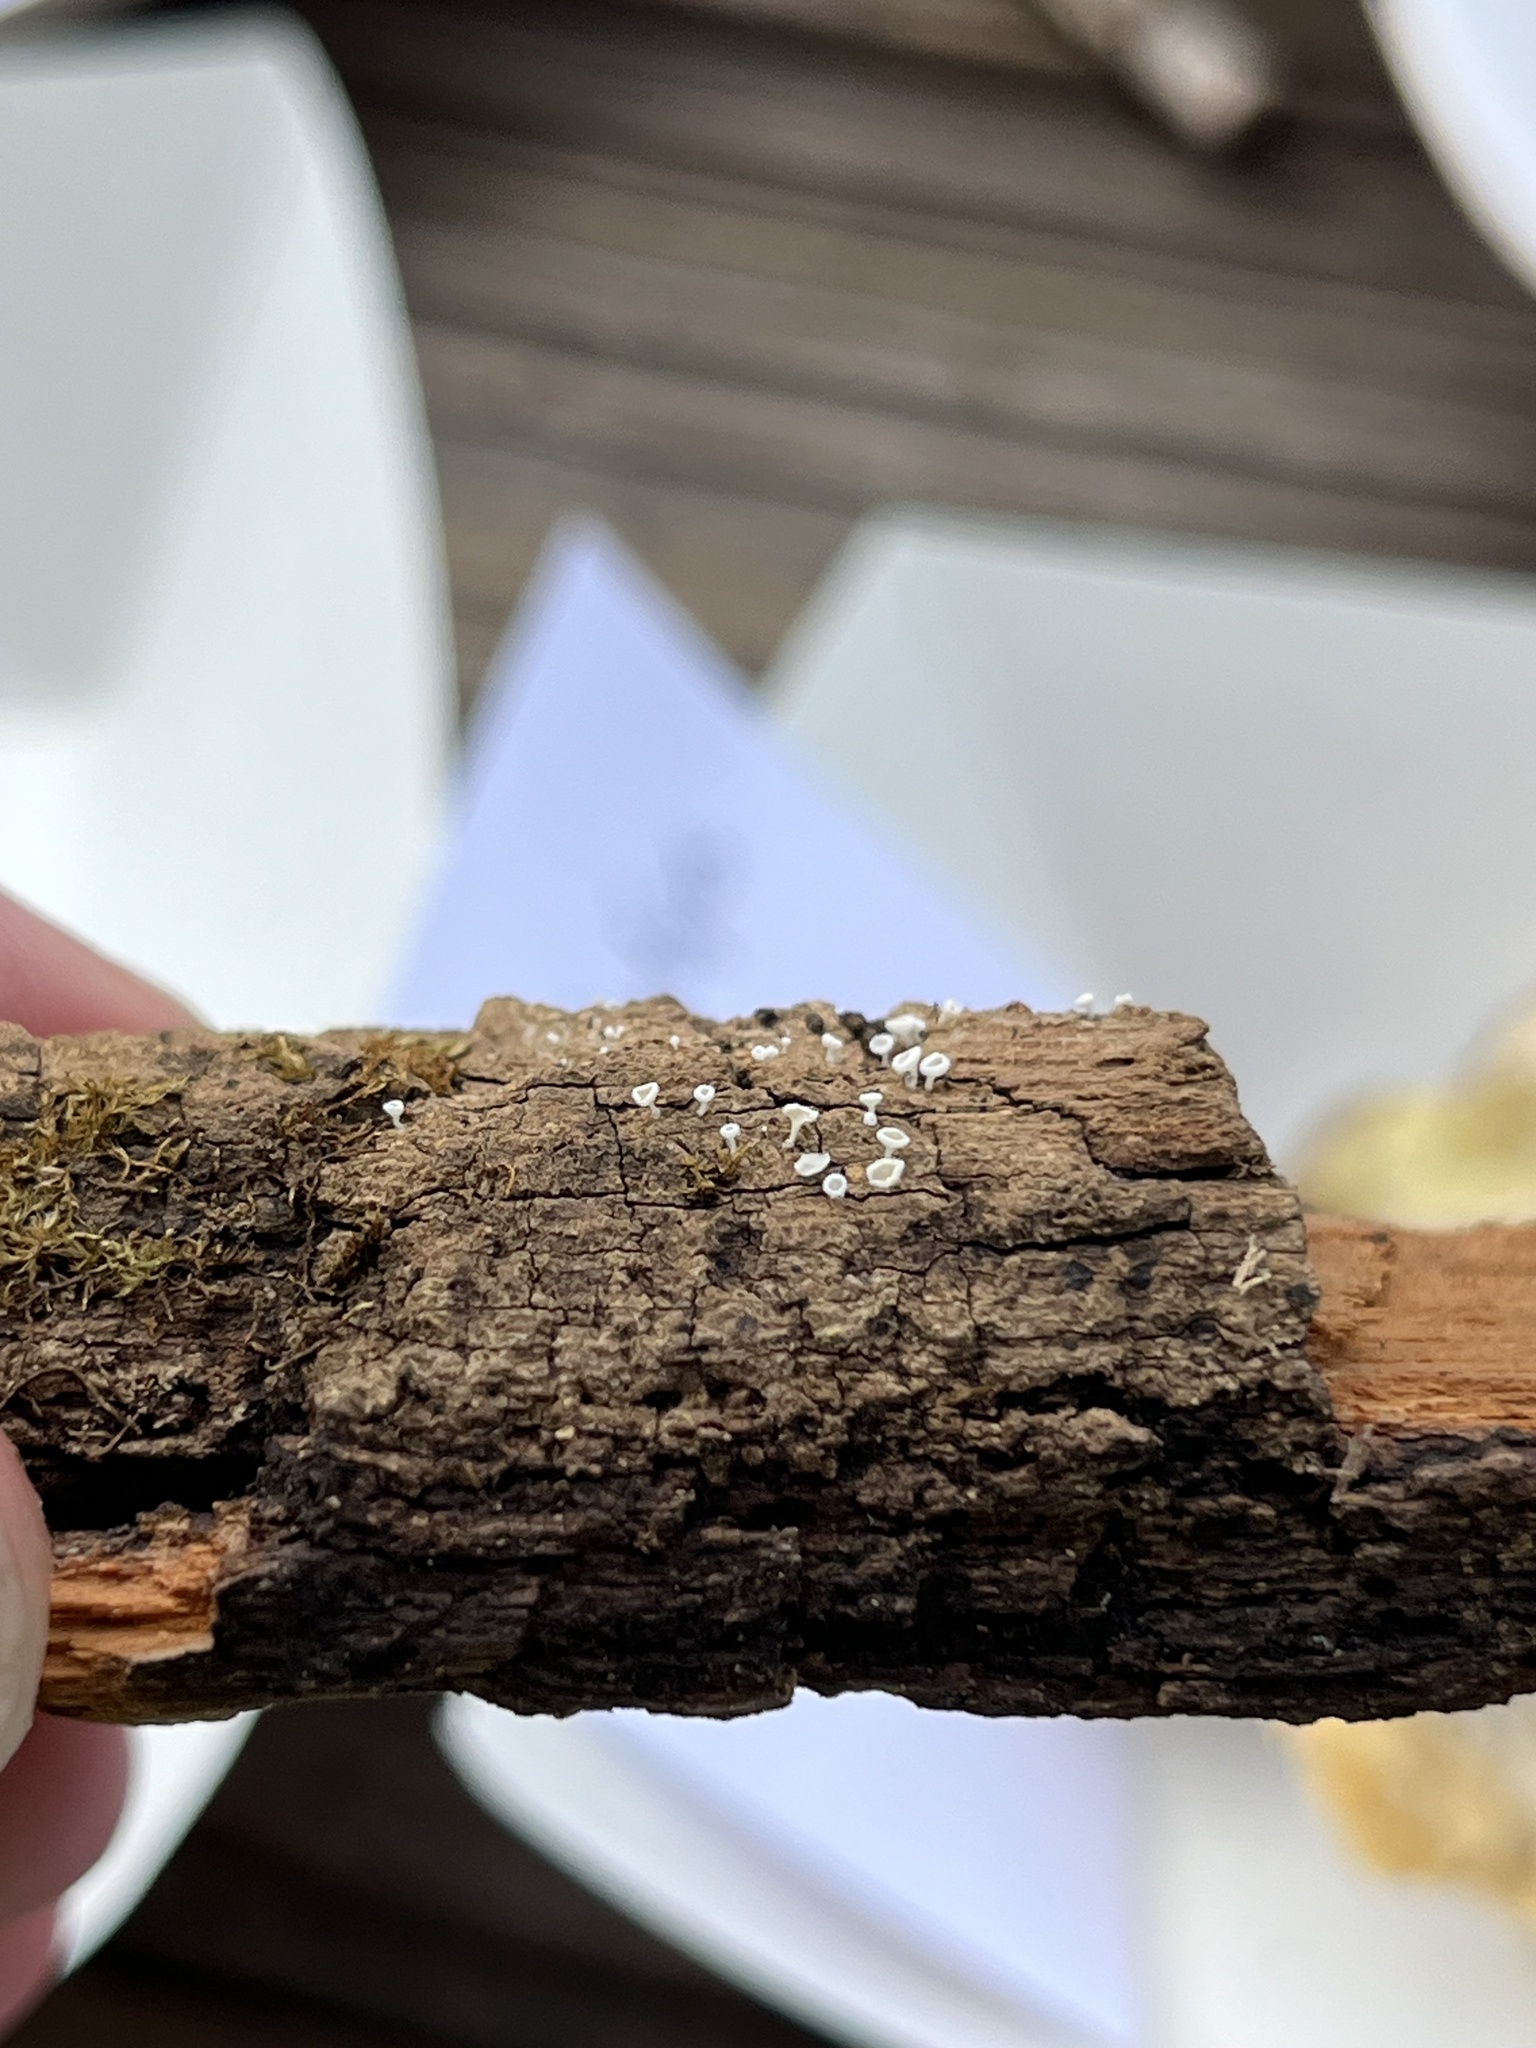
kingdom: Fungi
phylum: Ascomycota
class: Leotiomycetes
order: Helotiales
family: Lachnaceae
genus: Lachnum
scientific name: Lachnum virgineum
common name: Snowy disco
